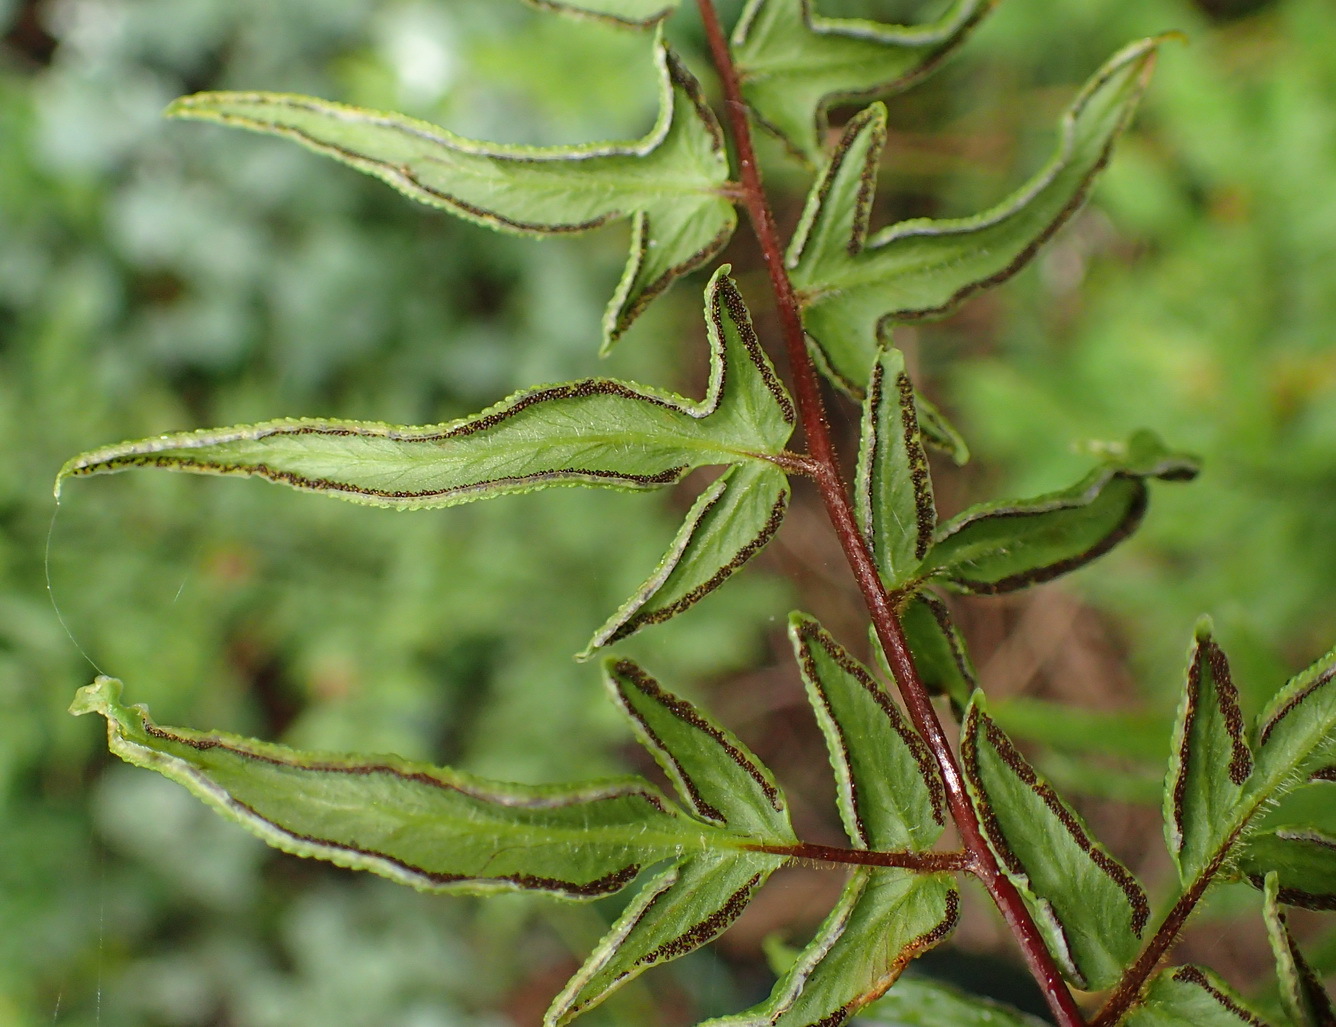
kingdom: Plantae
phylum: Tracheophyta
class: Polypodiopsida
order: Polypodiales
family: Pteridaceae
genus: Cheilanthes
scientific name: Cheilanthes viridis
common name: Green cliffbrake
